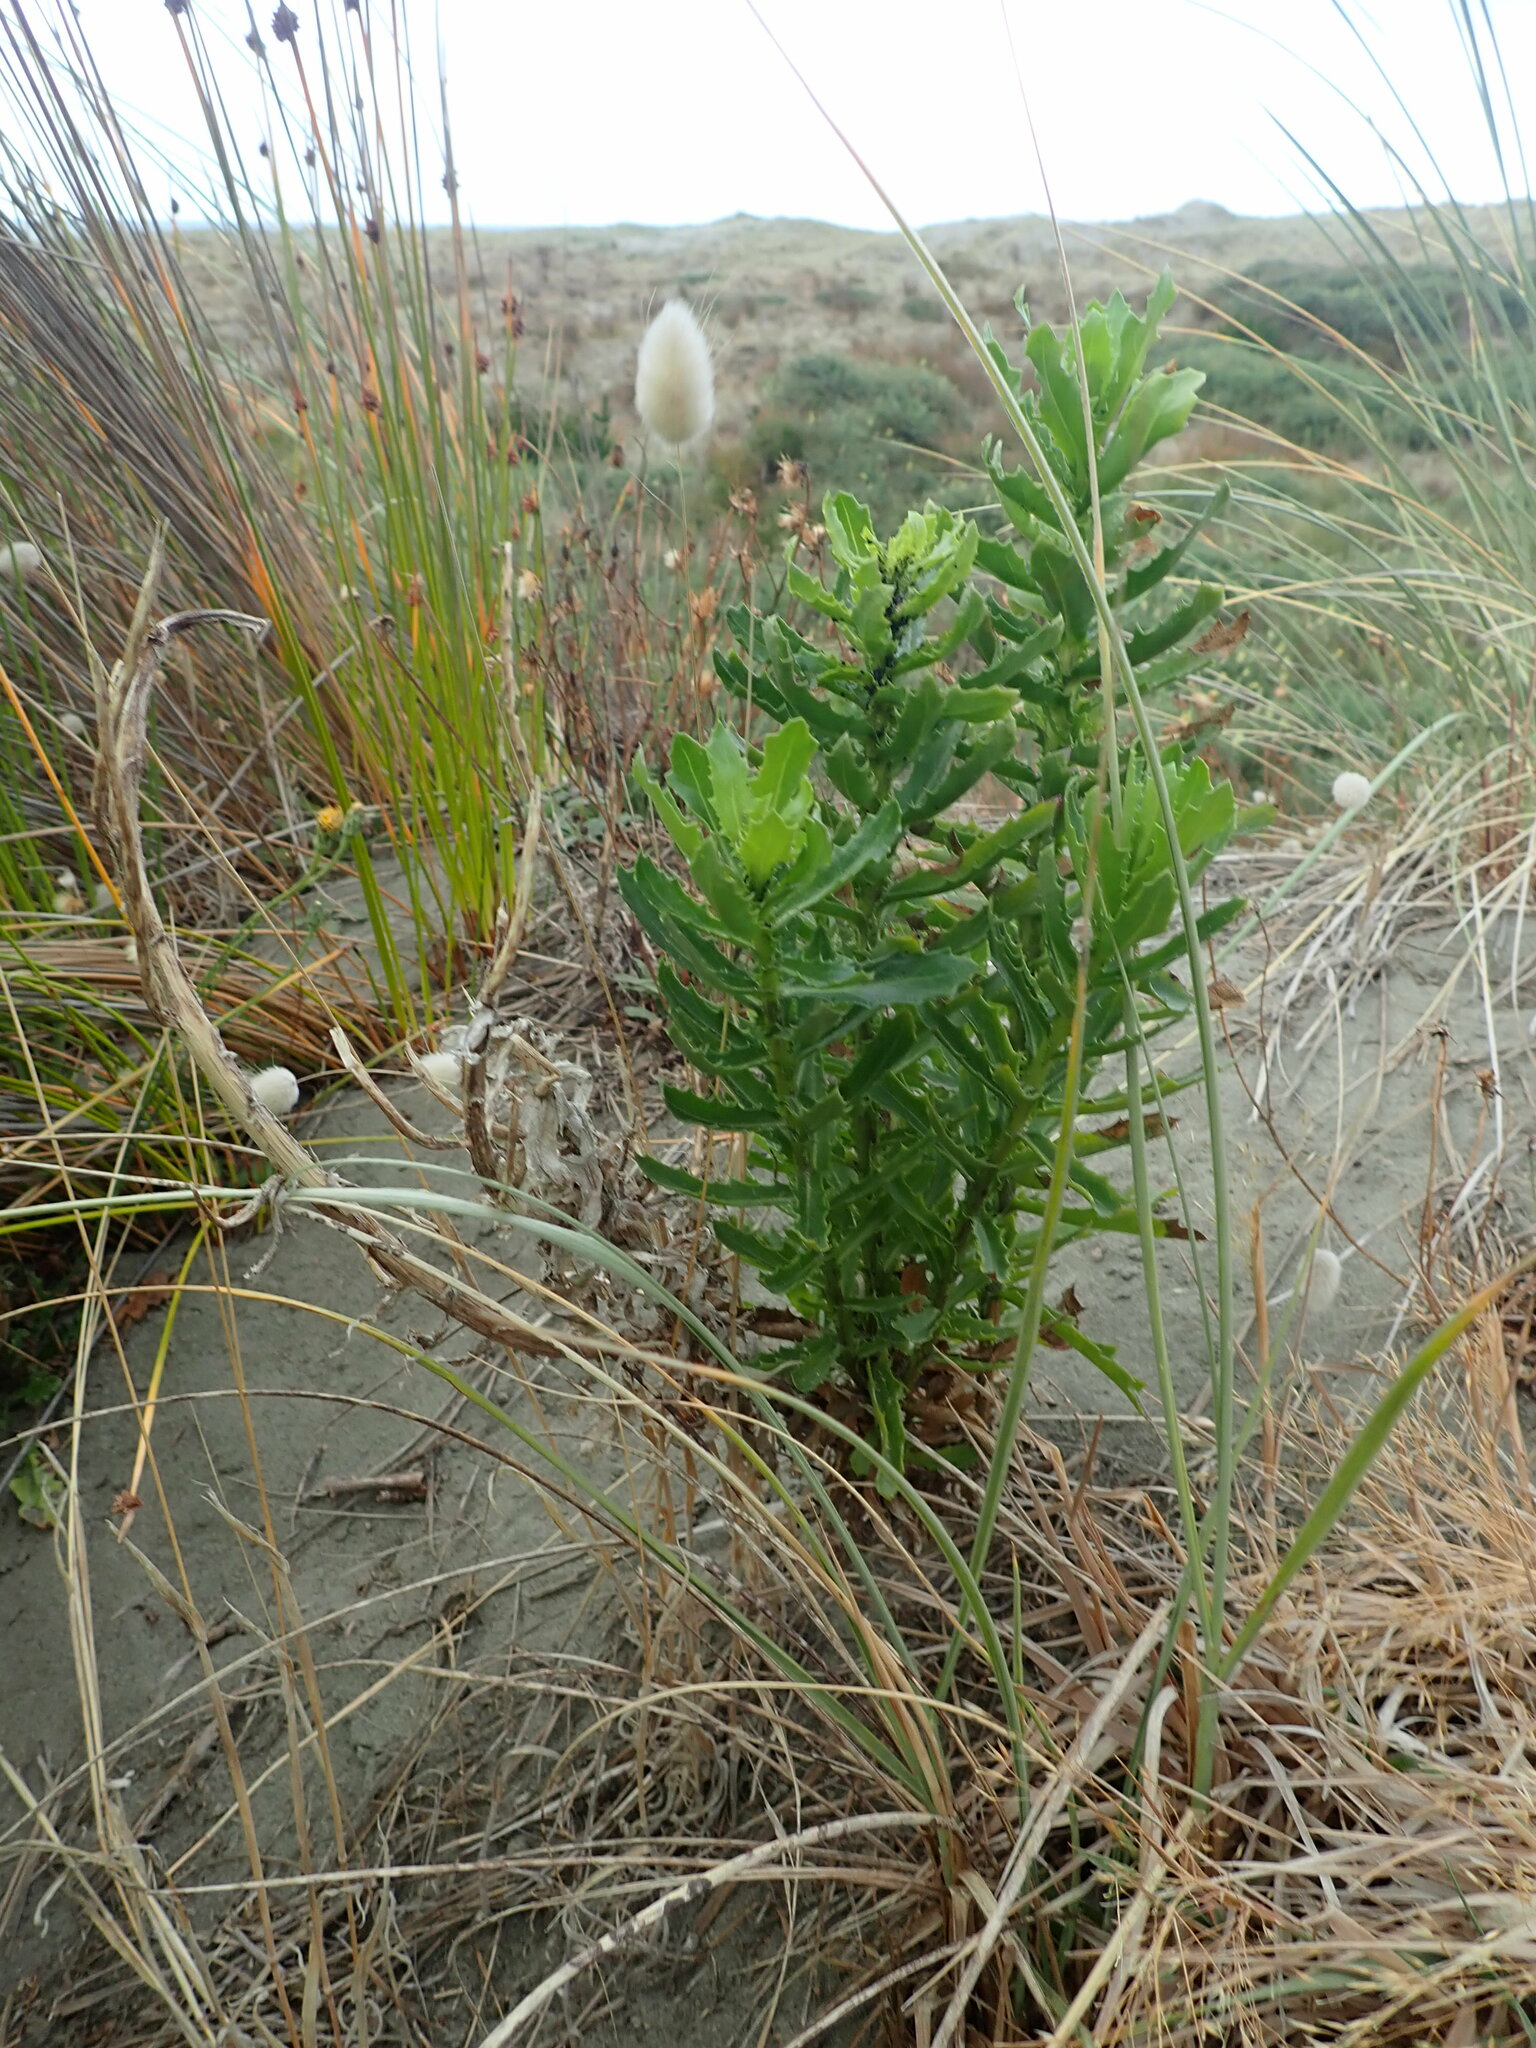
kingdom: Plantae
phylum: Tracheophyta
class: Magnoliopsida
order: Asterales
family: Asteraceae
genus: Senecio
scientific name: Senecio glastifolius
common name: Woad-leaved ragwort
